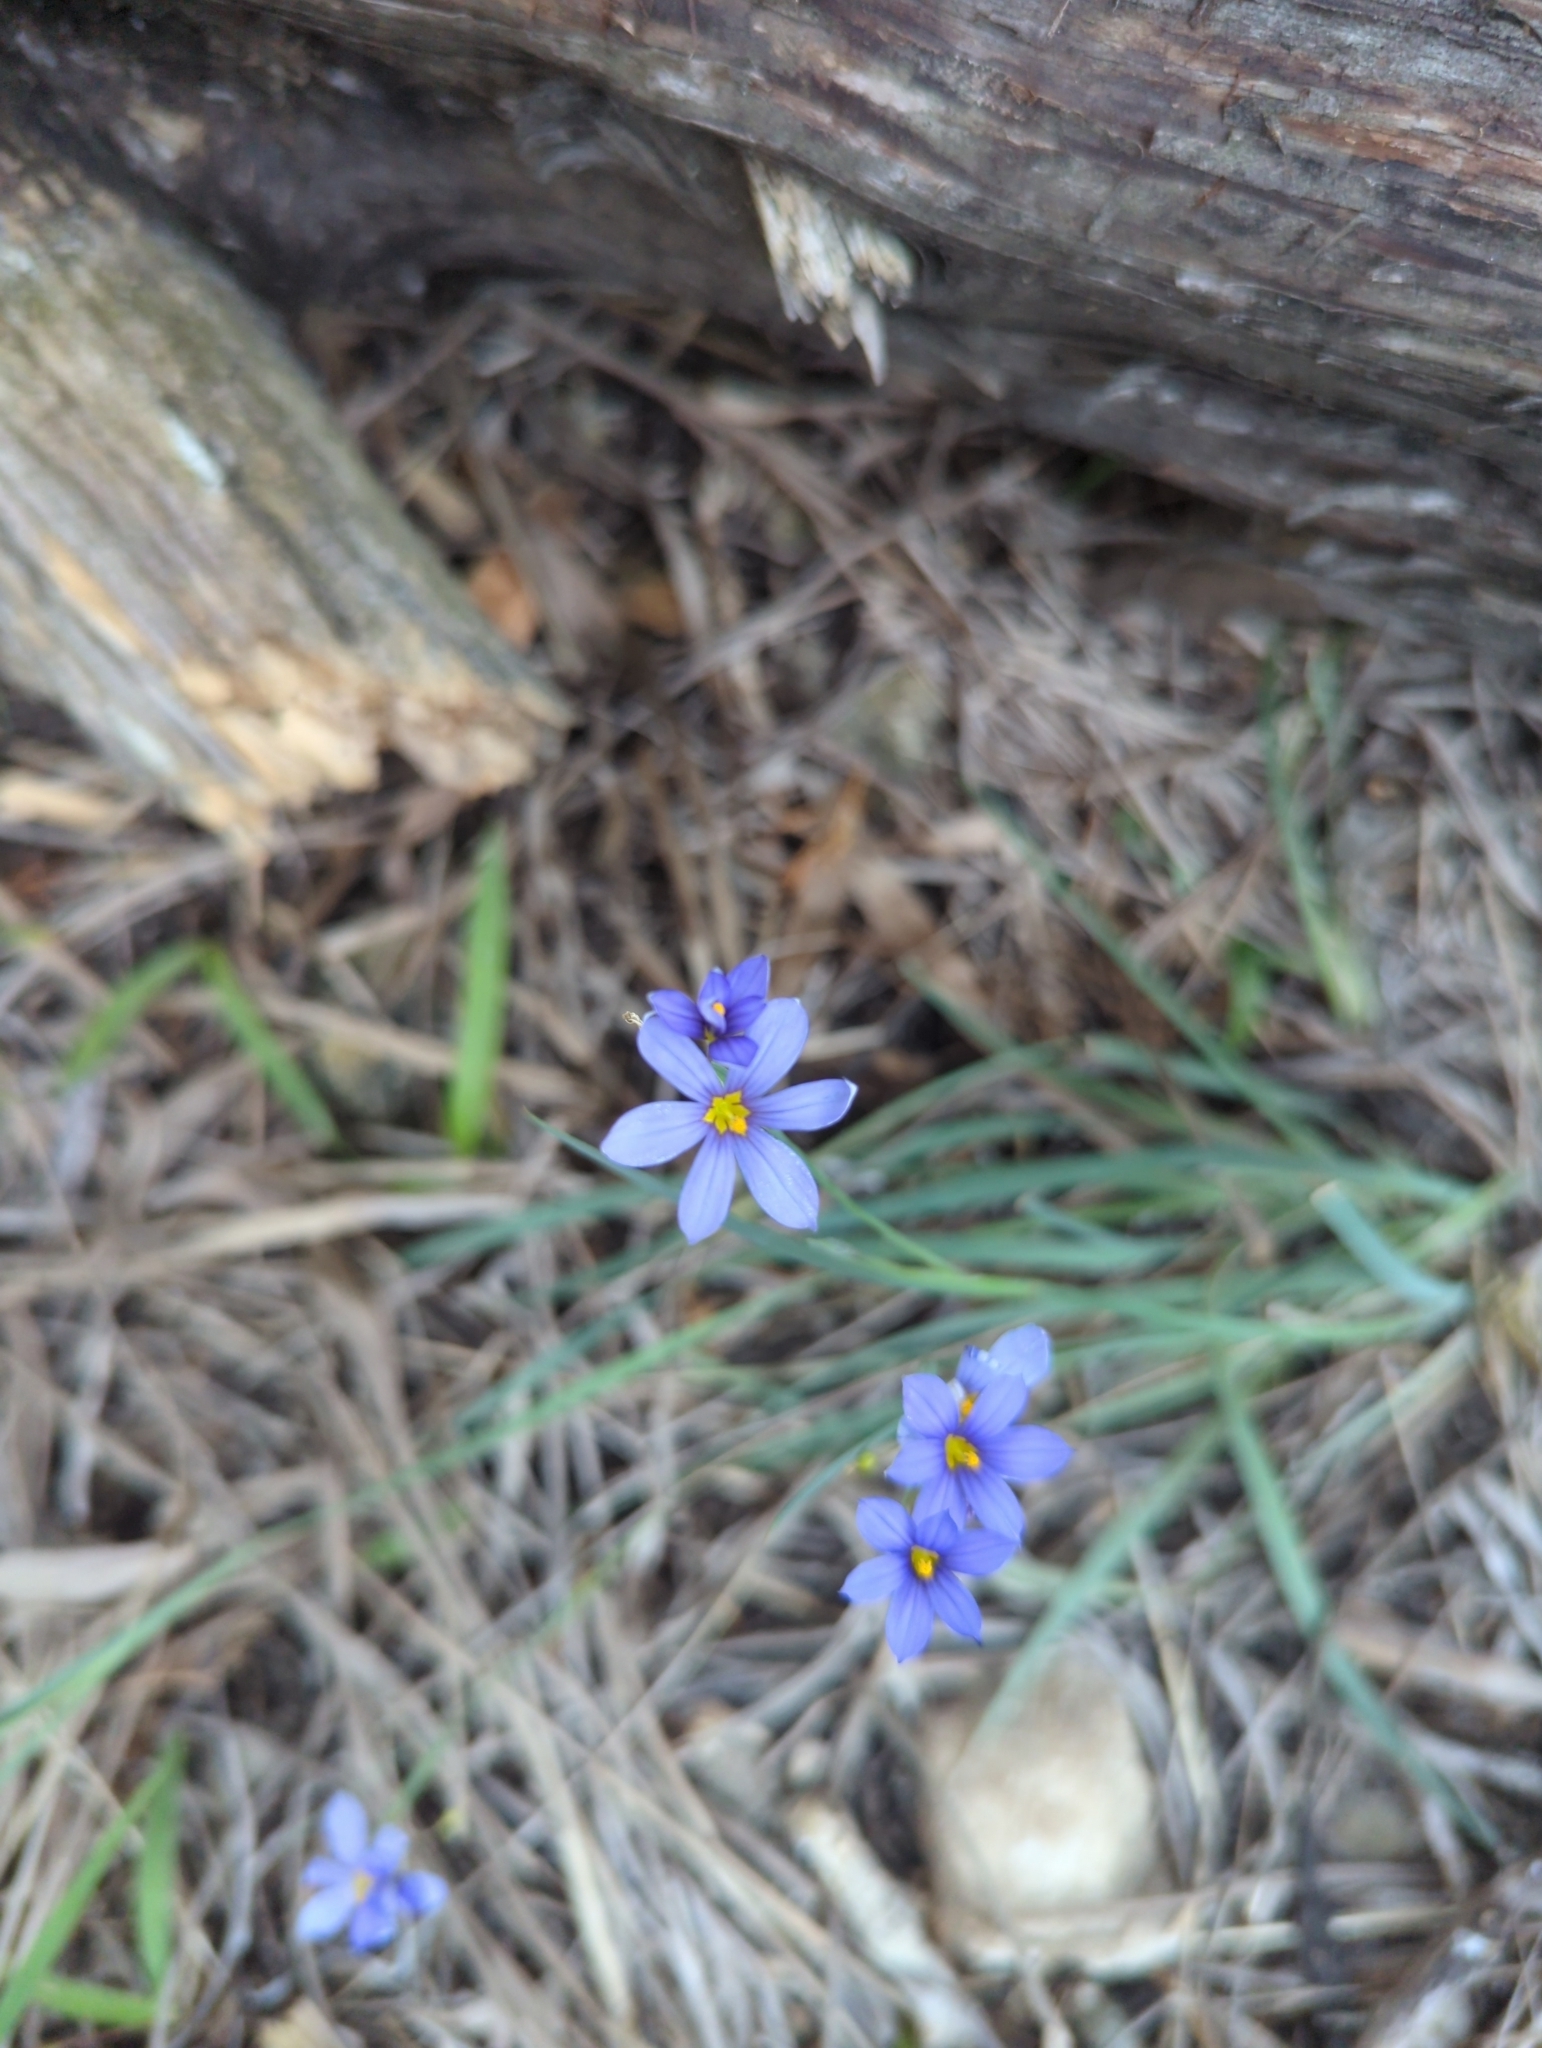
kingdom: Plantae
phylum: Tracheophyta
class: Liliopsida
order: Asparagales
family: Iridaceae
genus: Sisyrinchium
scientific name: Sisyrinchium ensigerum
